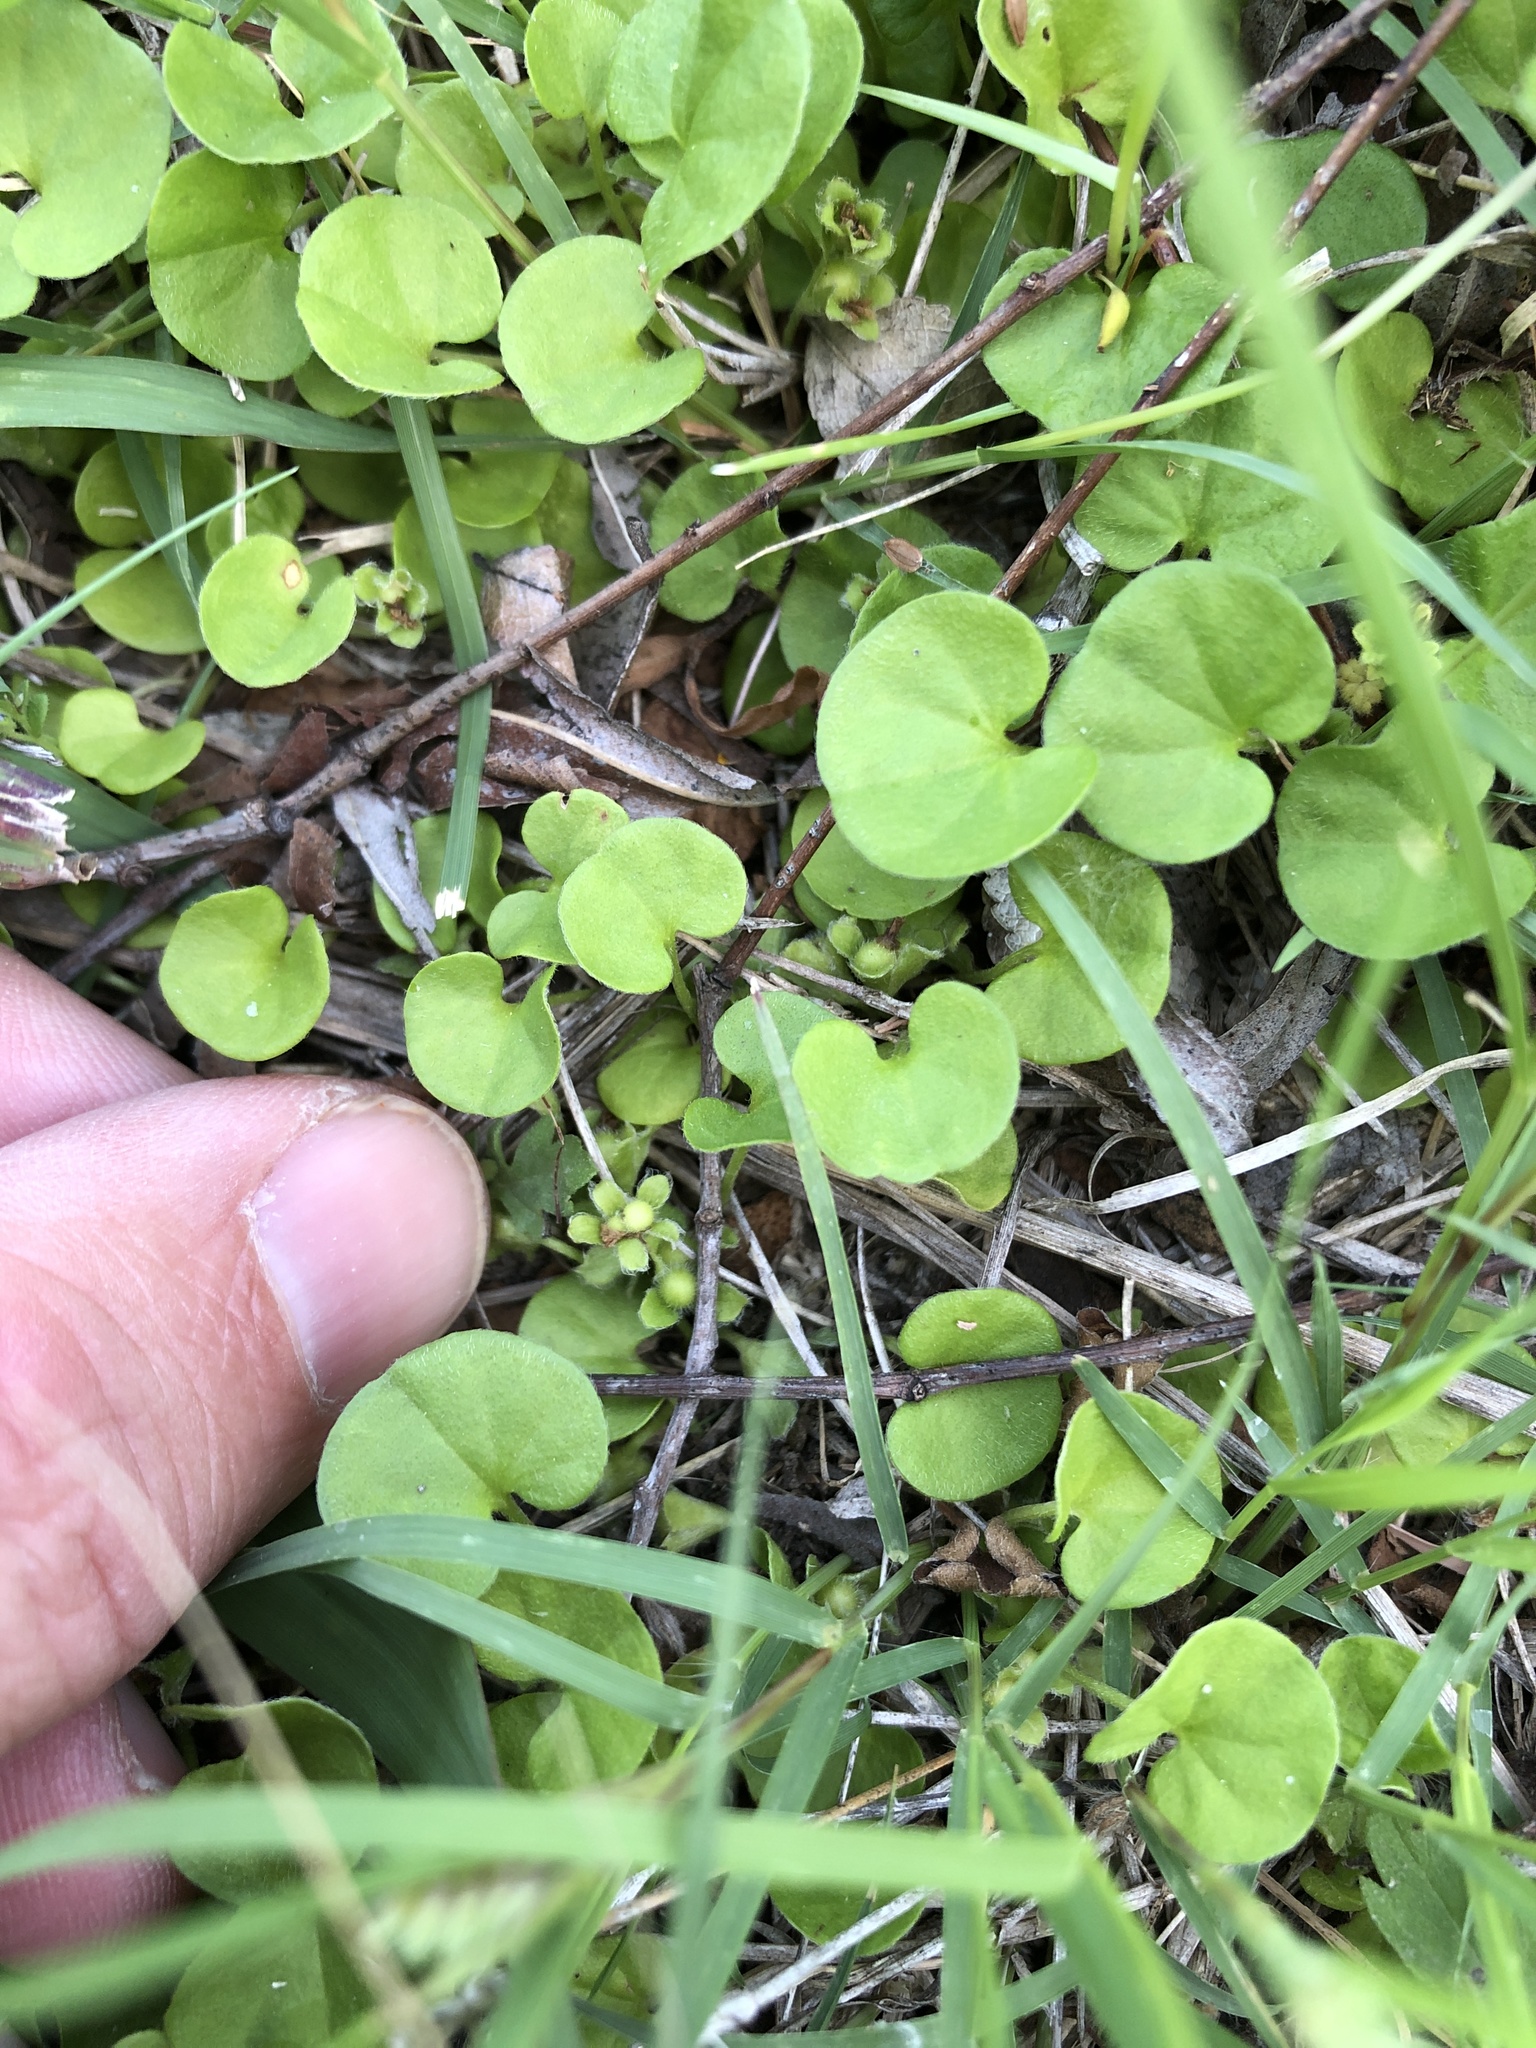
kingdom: Plantae
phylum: Tracheophyta
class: Magnoliopsida
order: Solanales
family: Convolvulaceae
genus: Dichondra
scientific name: Dichondra carolinensis
